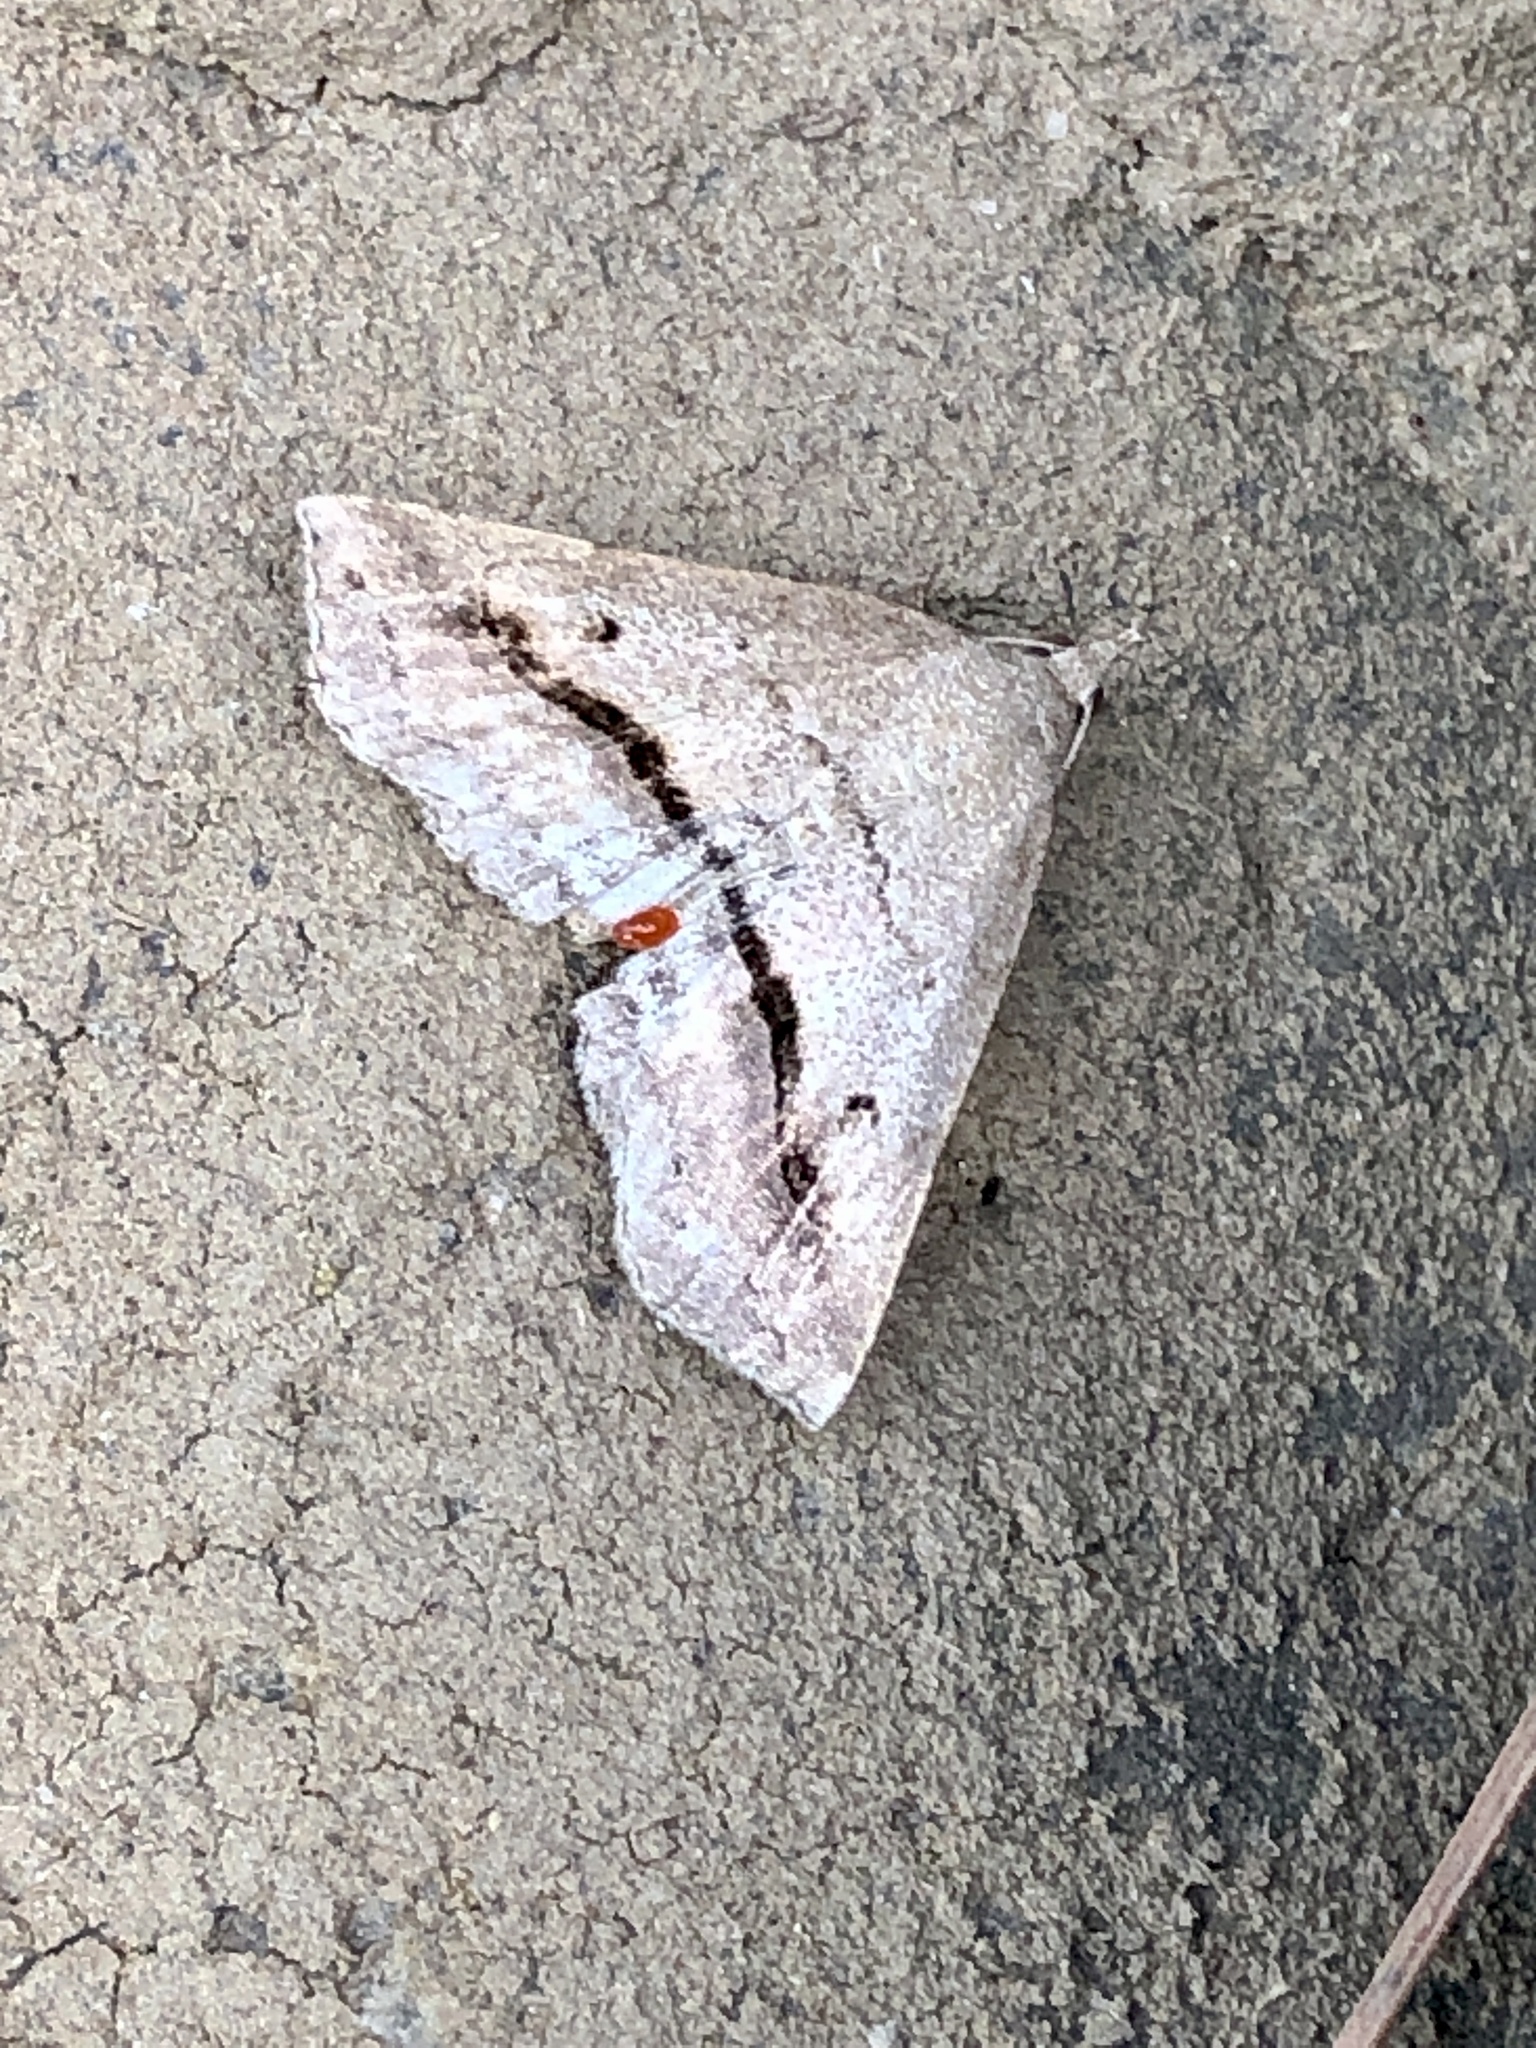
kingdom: Animalia
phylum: Arthropoda
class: Insecta
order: Lepidoptera
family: Erebidae
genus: Spargaloma
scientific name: Spargaloma perditalis
